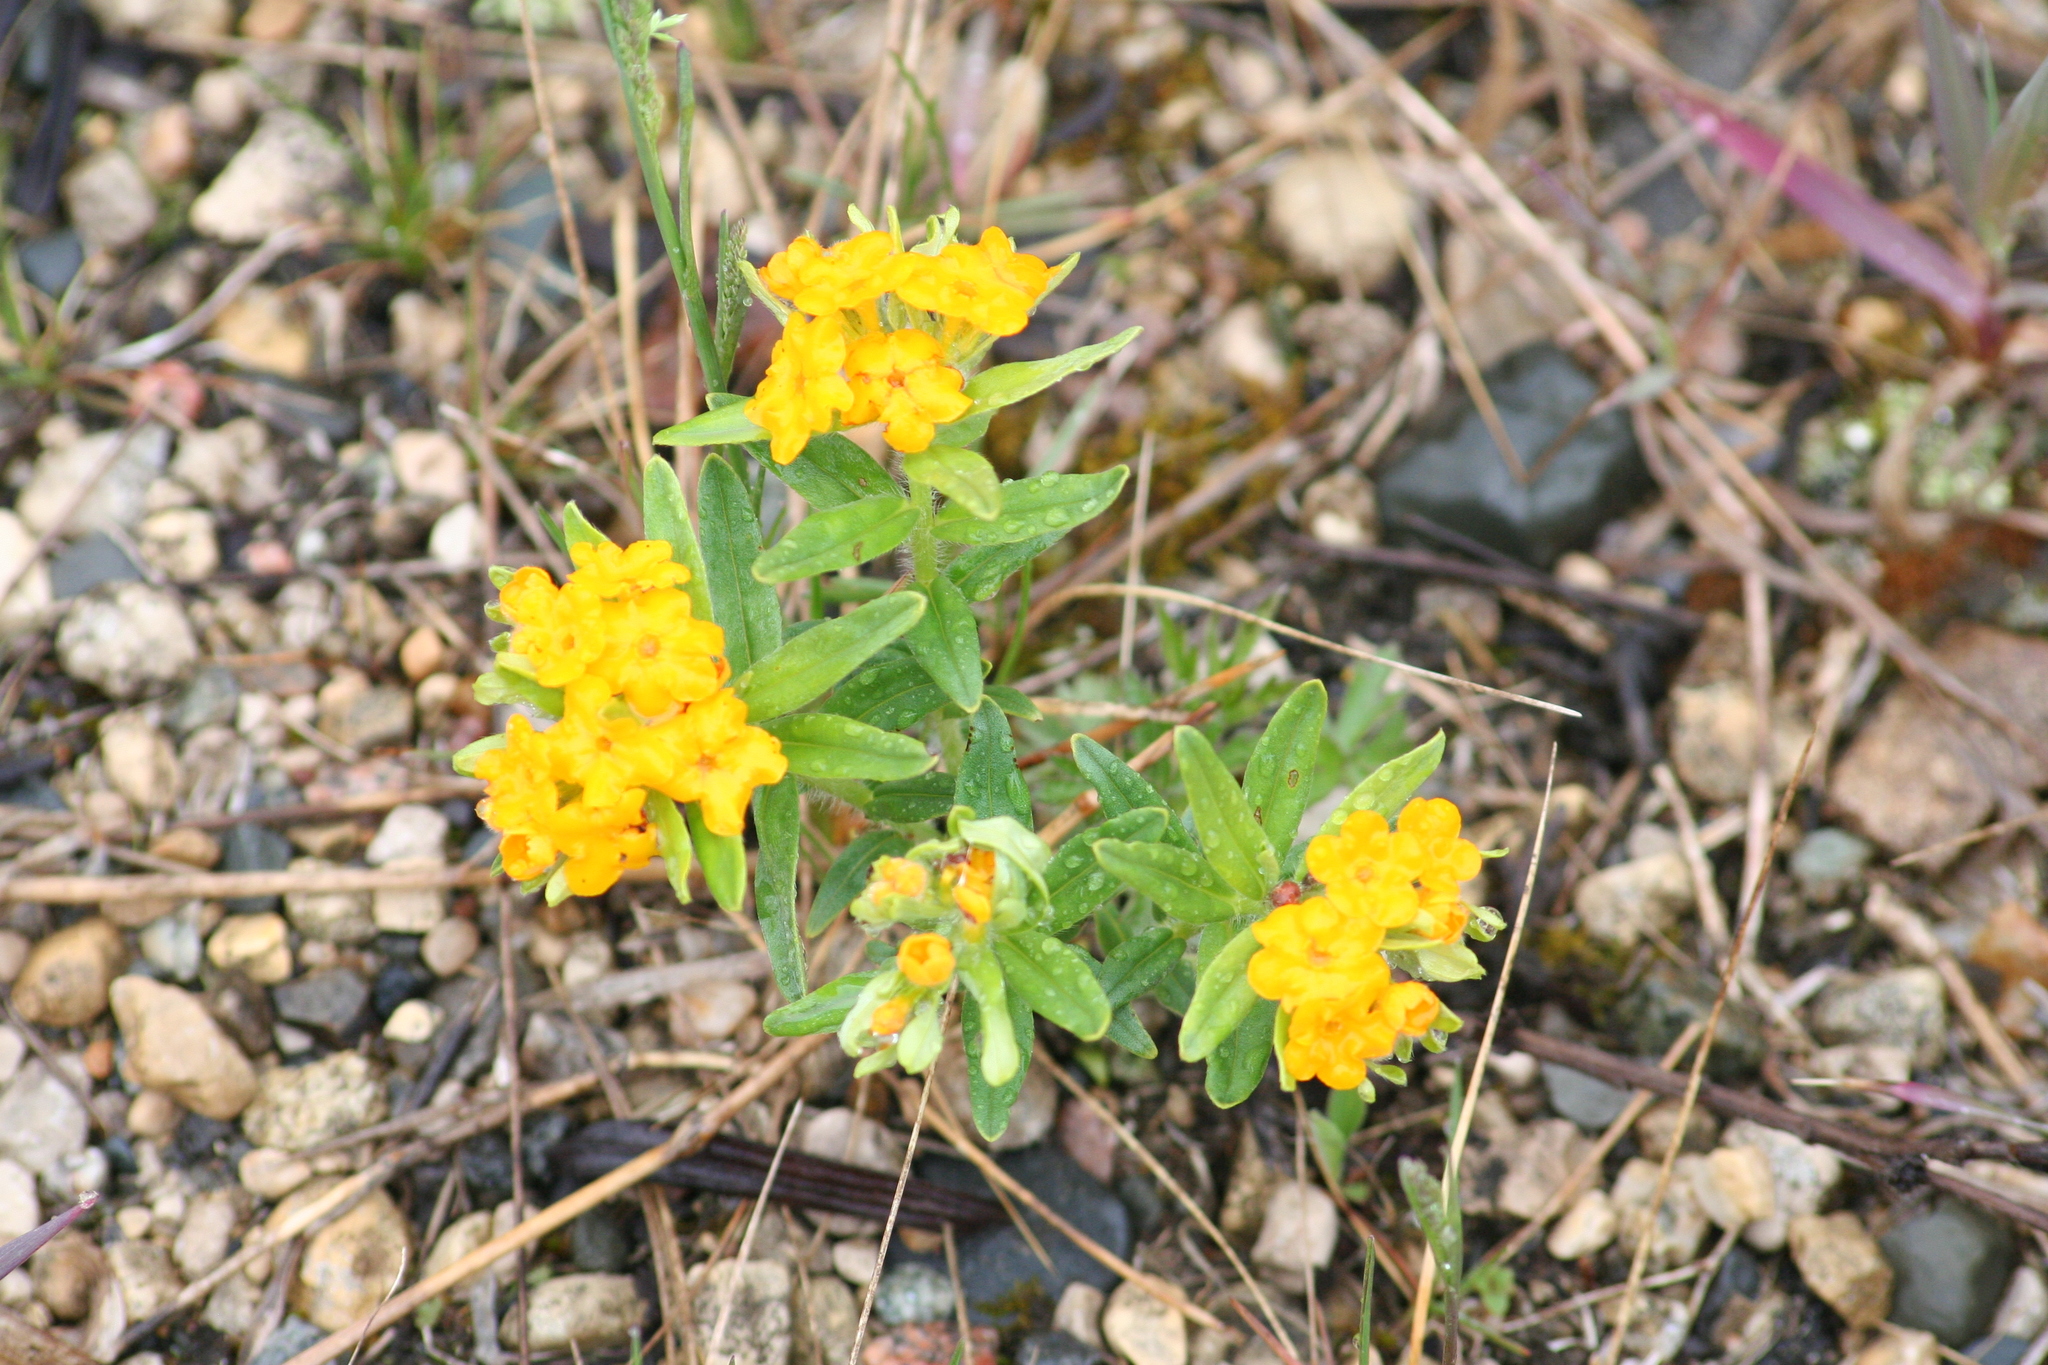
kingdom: Plantae
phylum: Tracheophyta
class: Magnoliopsida
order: Boraginales
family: Boraginaceae
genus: Lithospermum
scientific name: Lithospermum canescens
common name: Hoary puccoon
